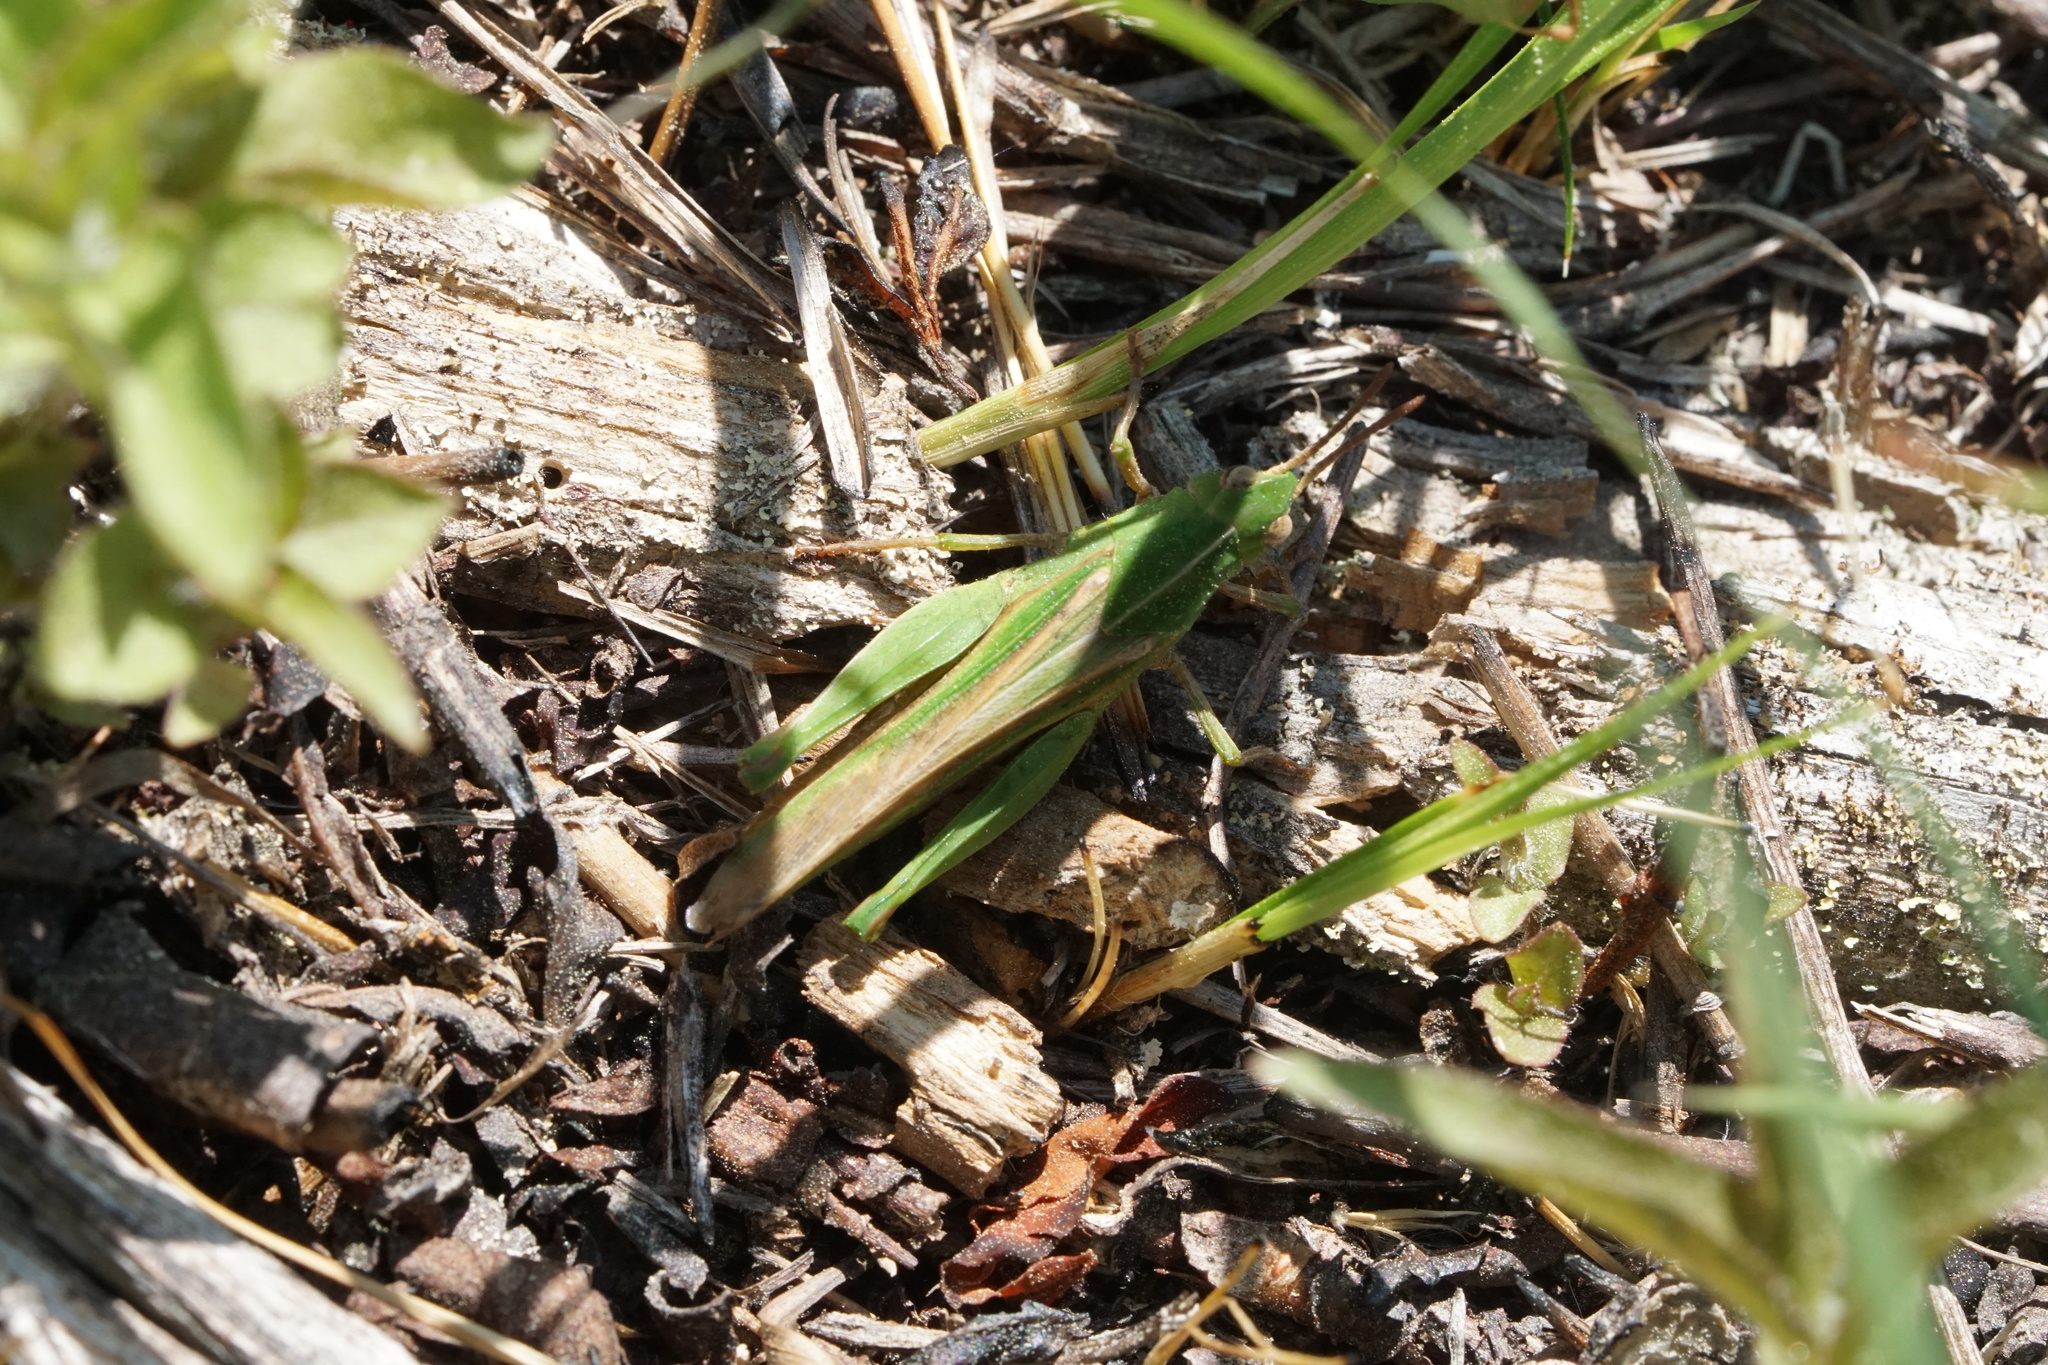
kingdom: Animalia
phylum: Arthropoda
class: Insecta
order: Orthoptera
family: Acrididae
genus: Chortophaga
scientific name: Chortophaga viridifasciata
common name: Green-striped grasshopper
